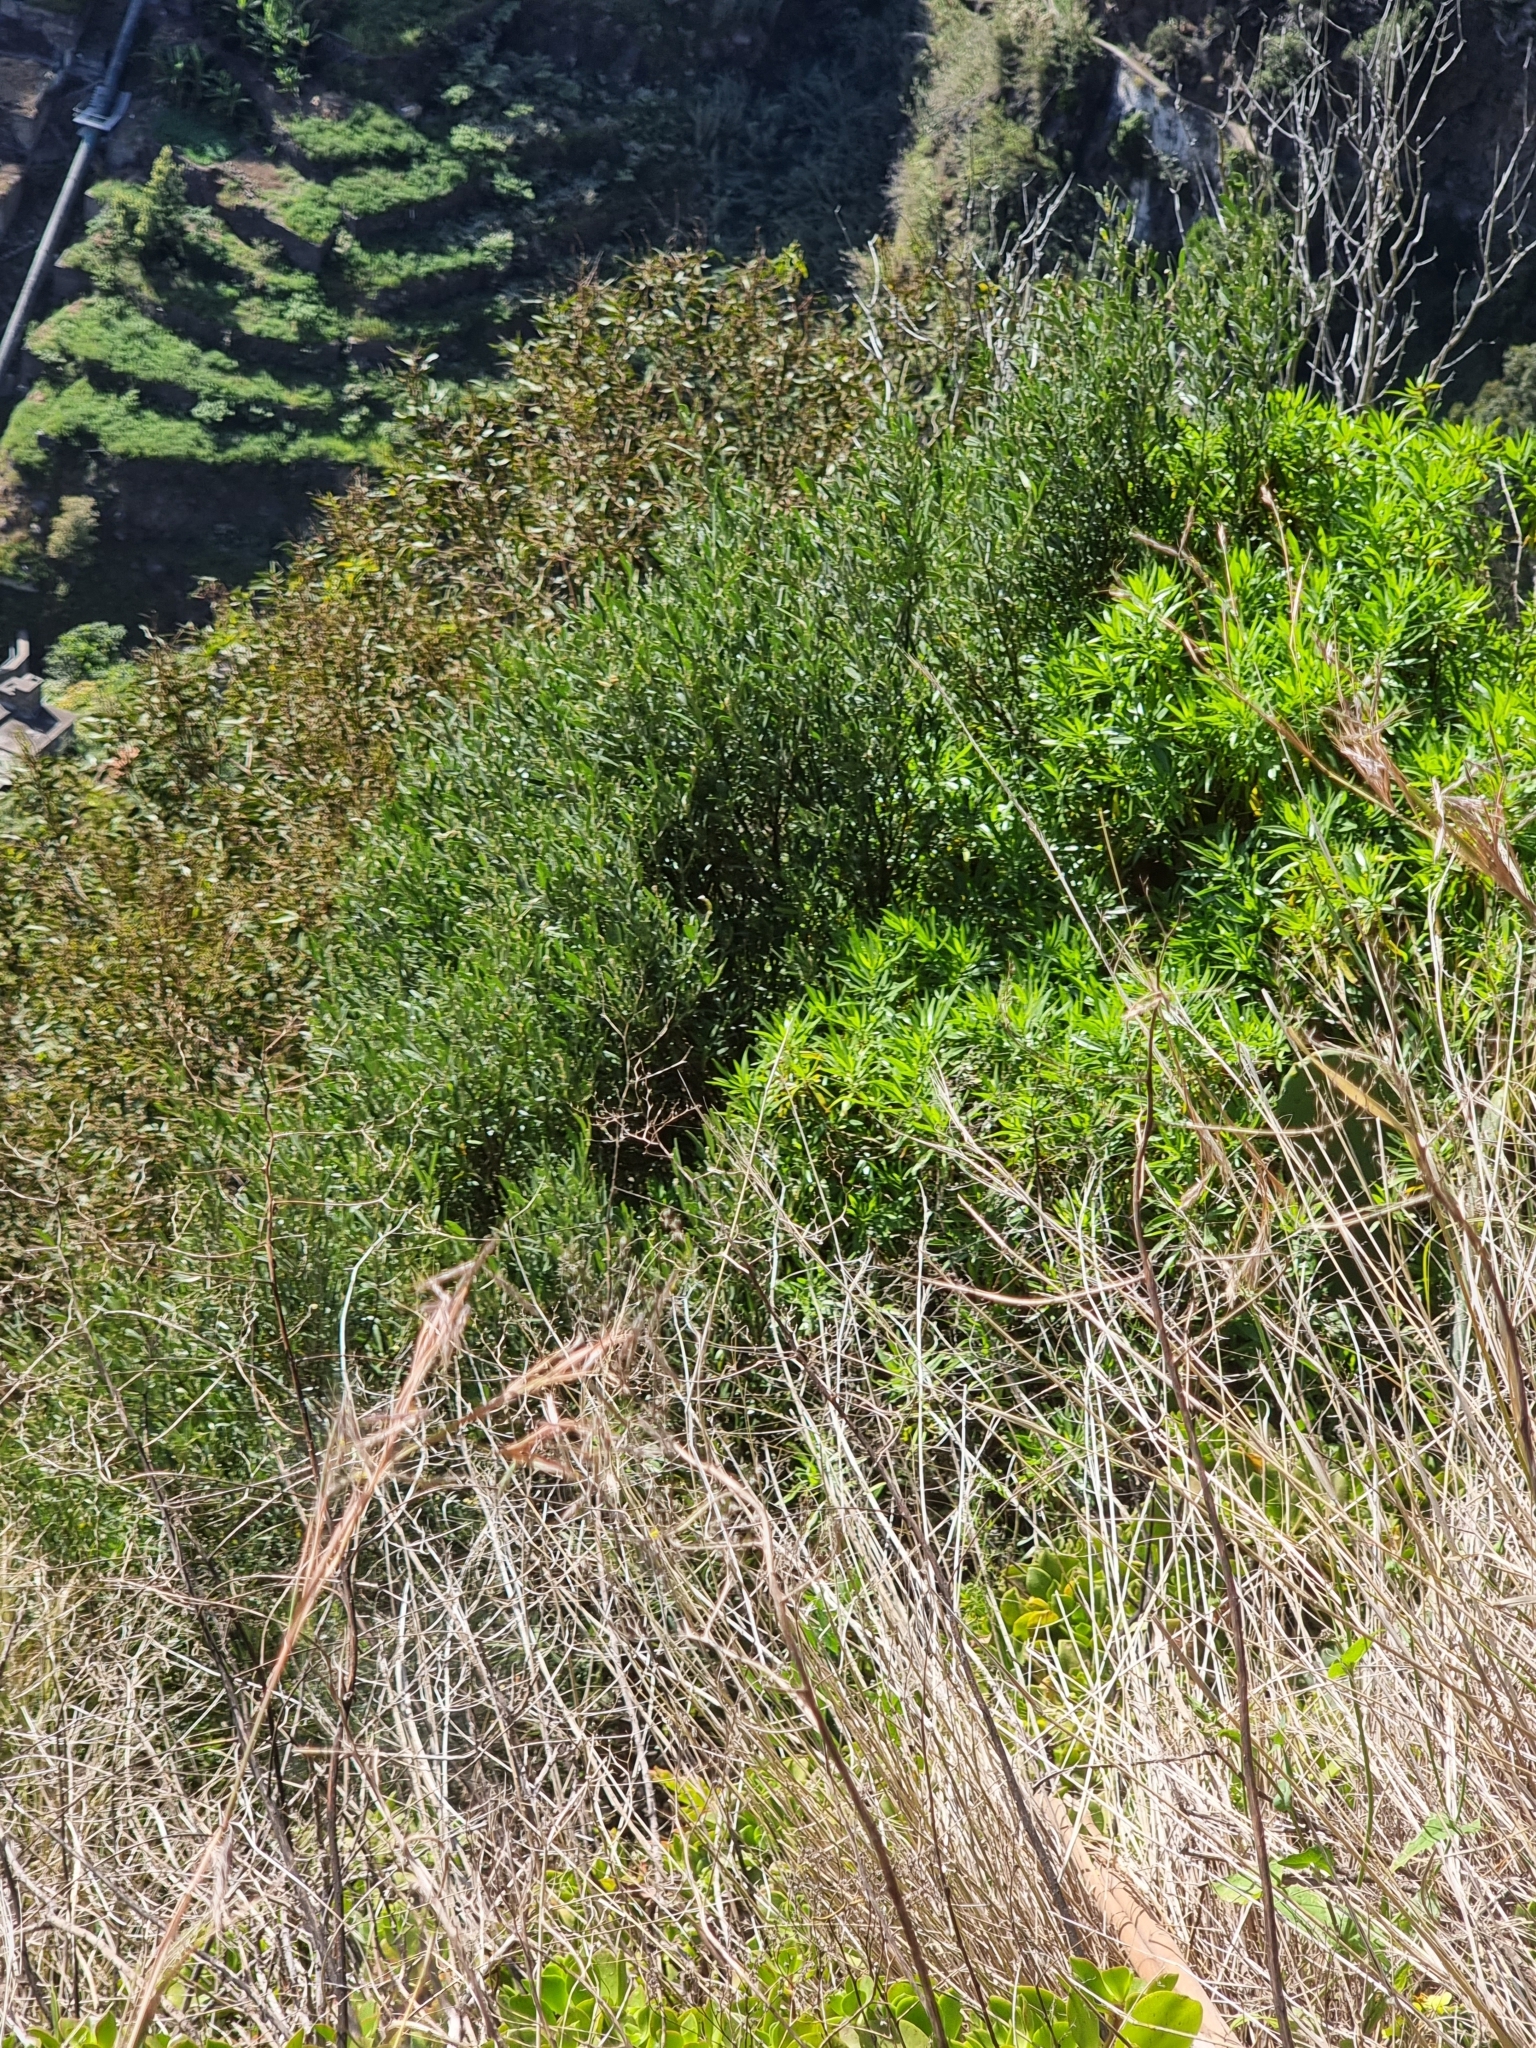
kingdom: Plantae
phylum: Tracheophyta
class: Magnoliopsida
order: Lamiales
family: Oleaceae
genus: Olea
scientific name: Olea europaea
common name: Olive
